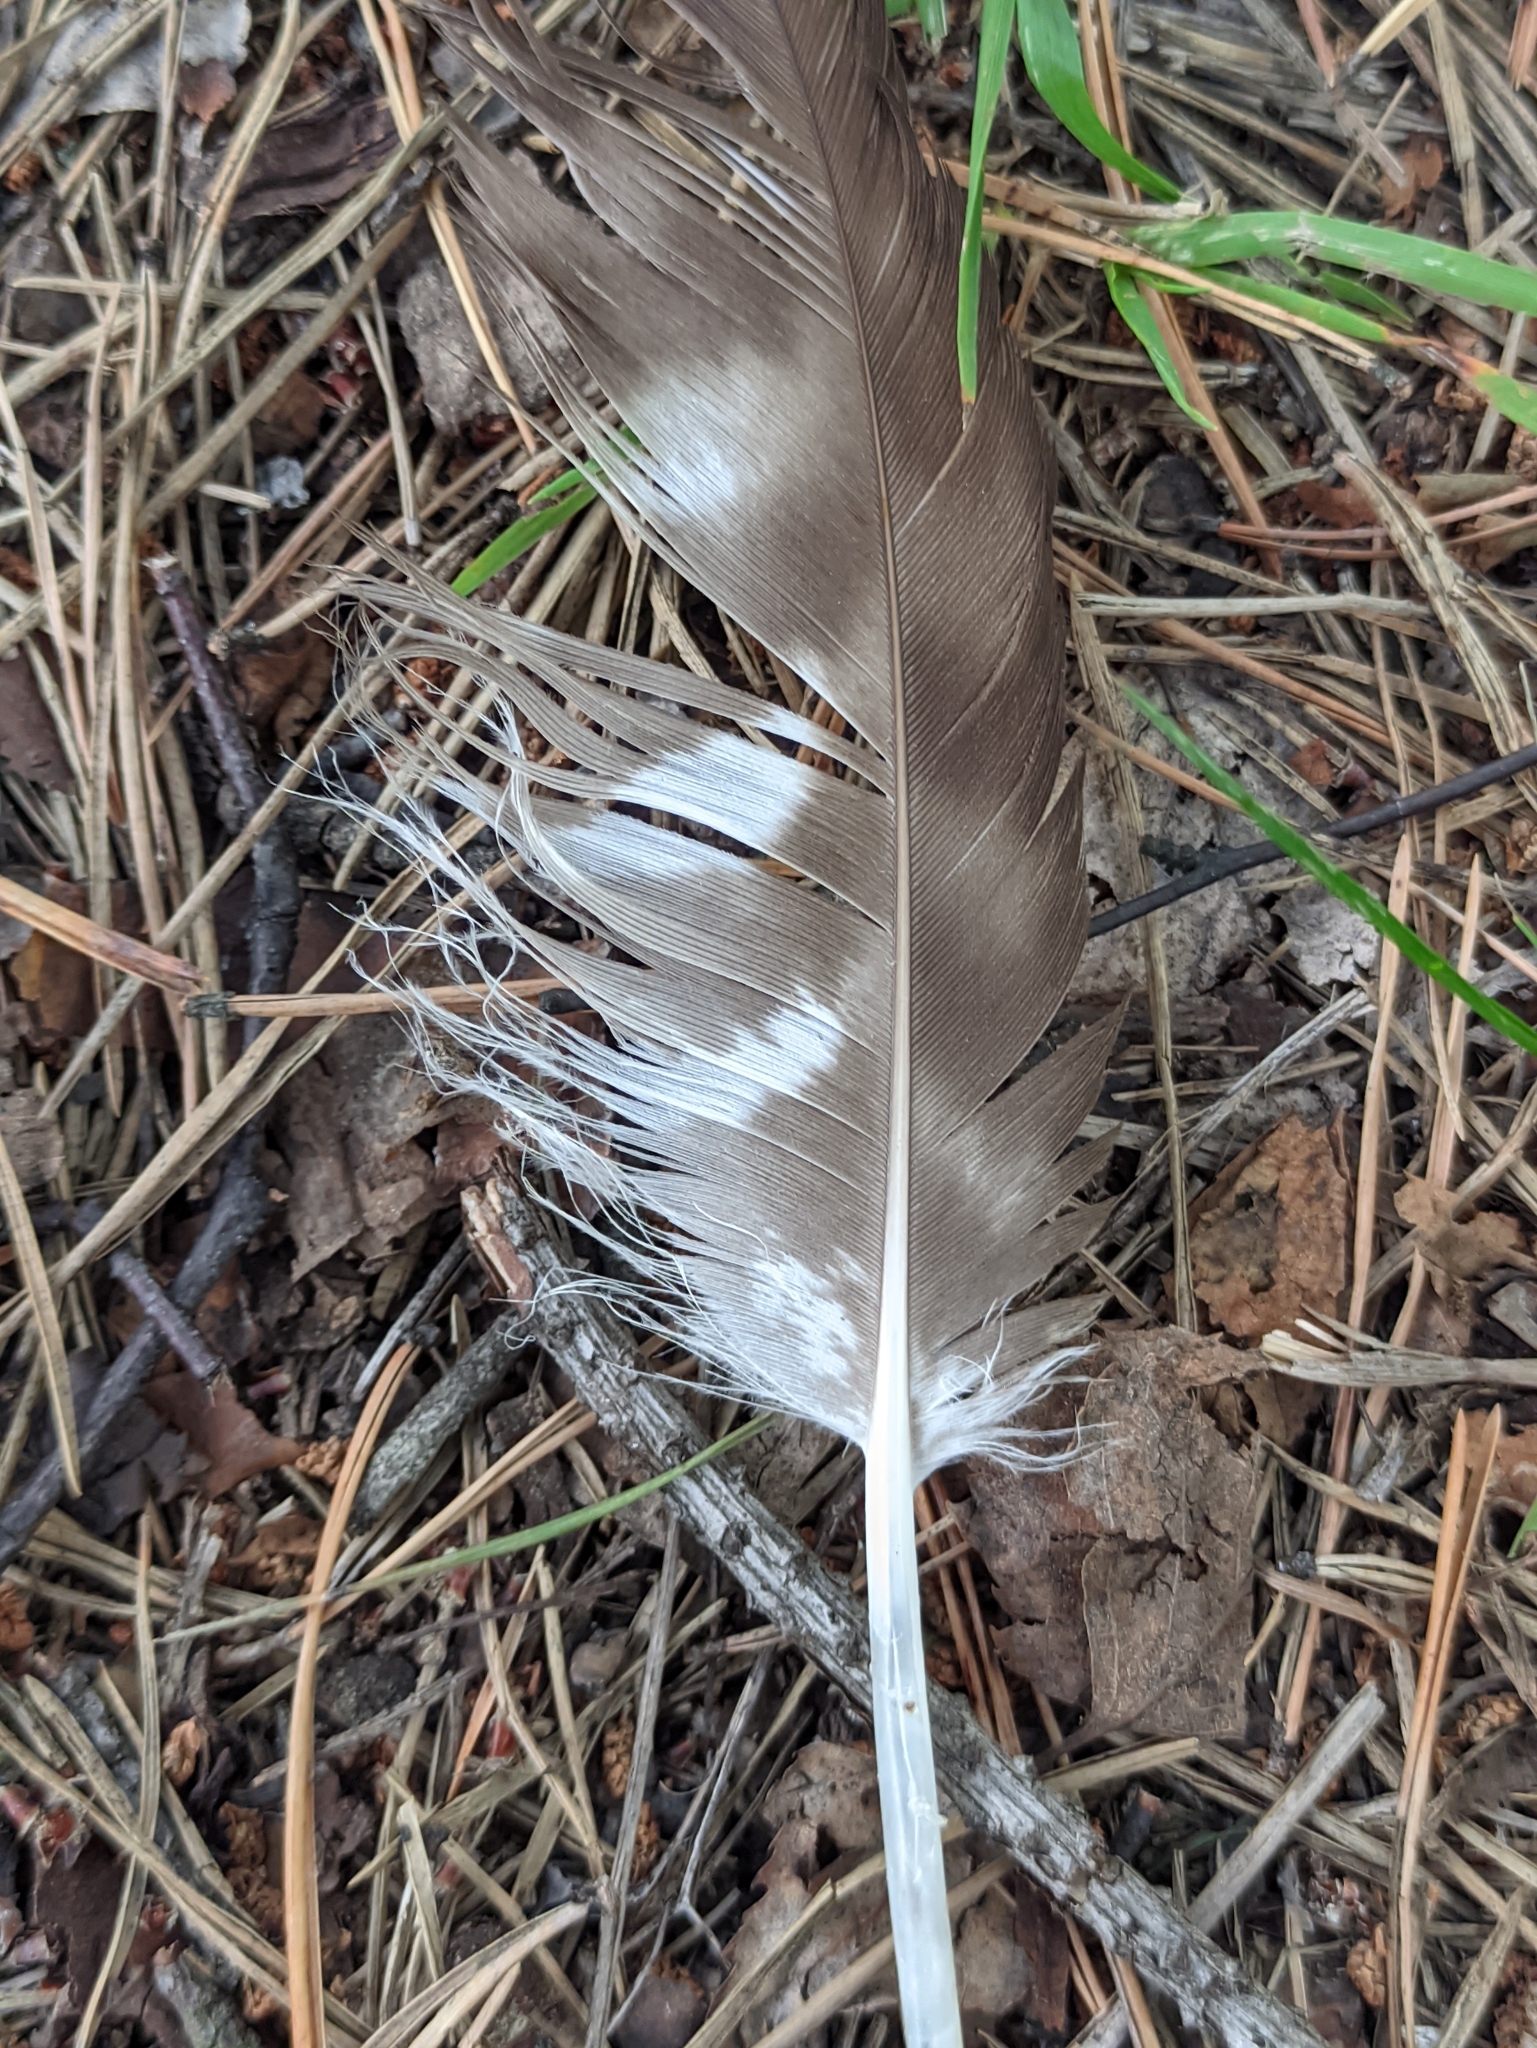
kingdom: Animalia
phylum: Chordata
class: Aves
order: Accipitriformes
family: Accipitridae
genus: Buteo
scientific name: Buteo buteo
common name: Common buzzard
